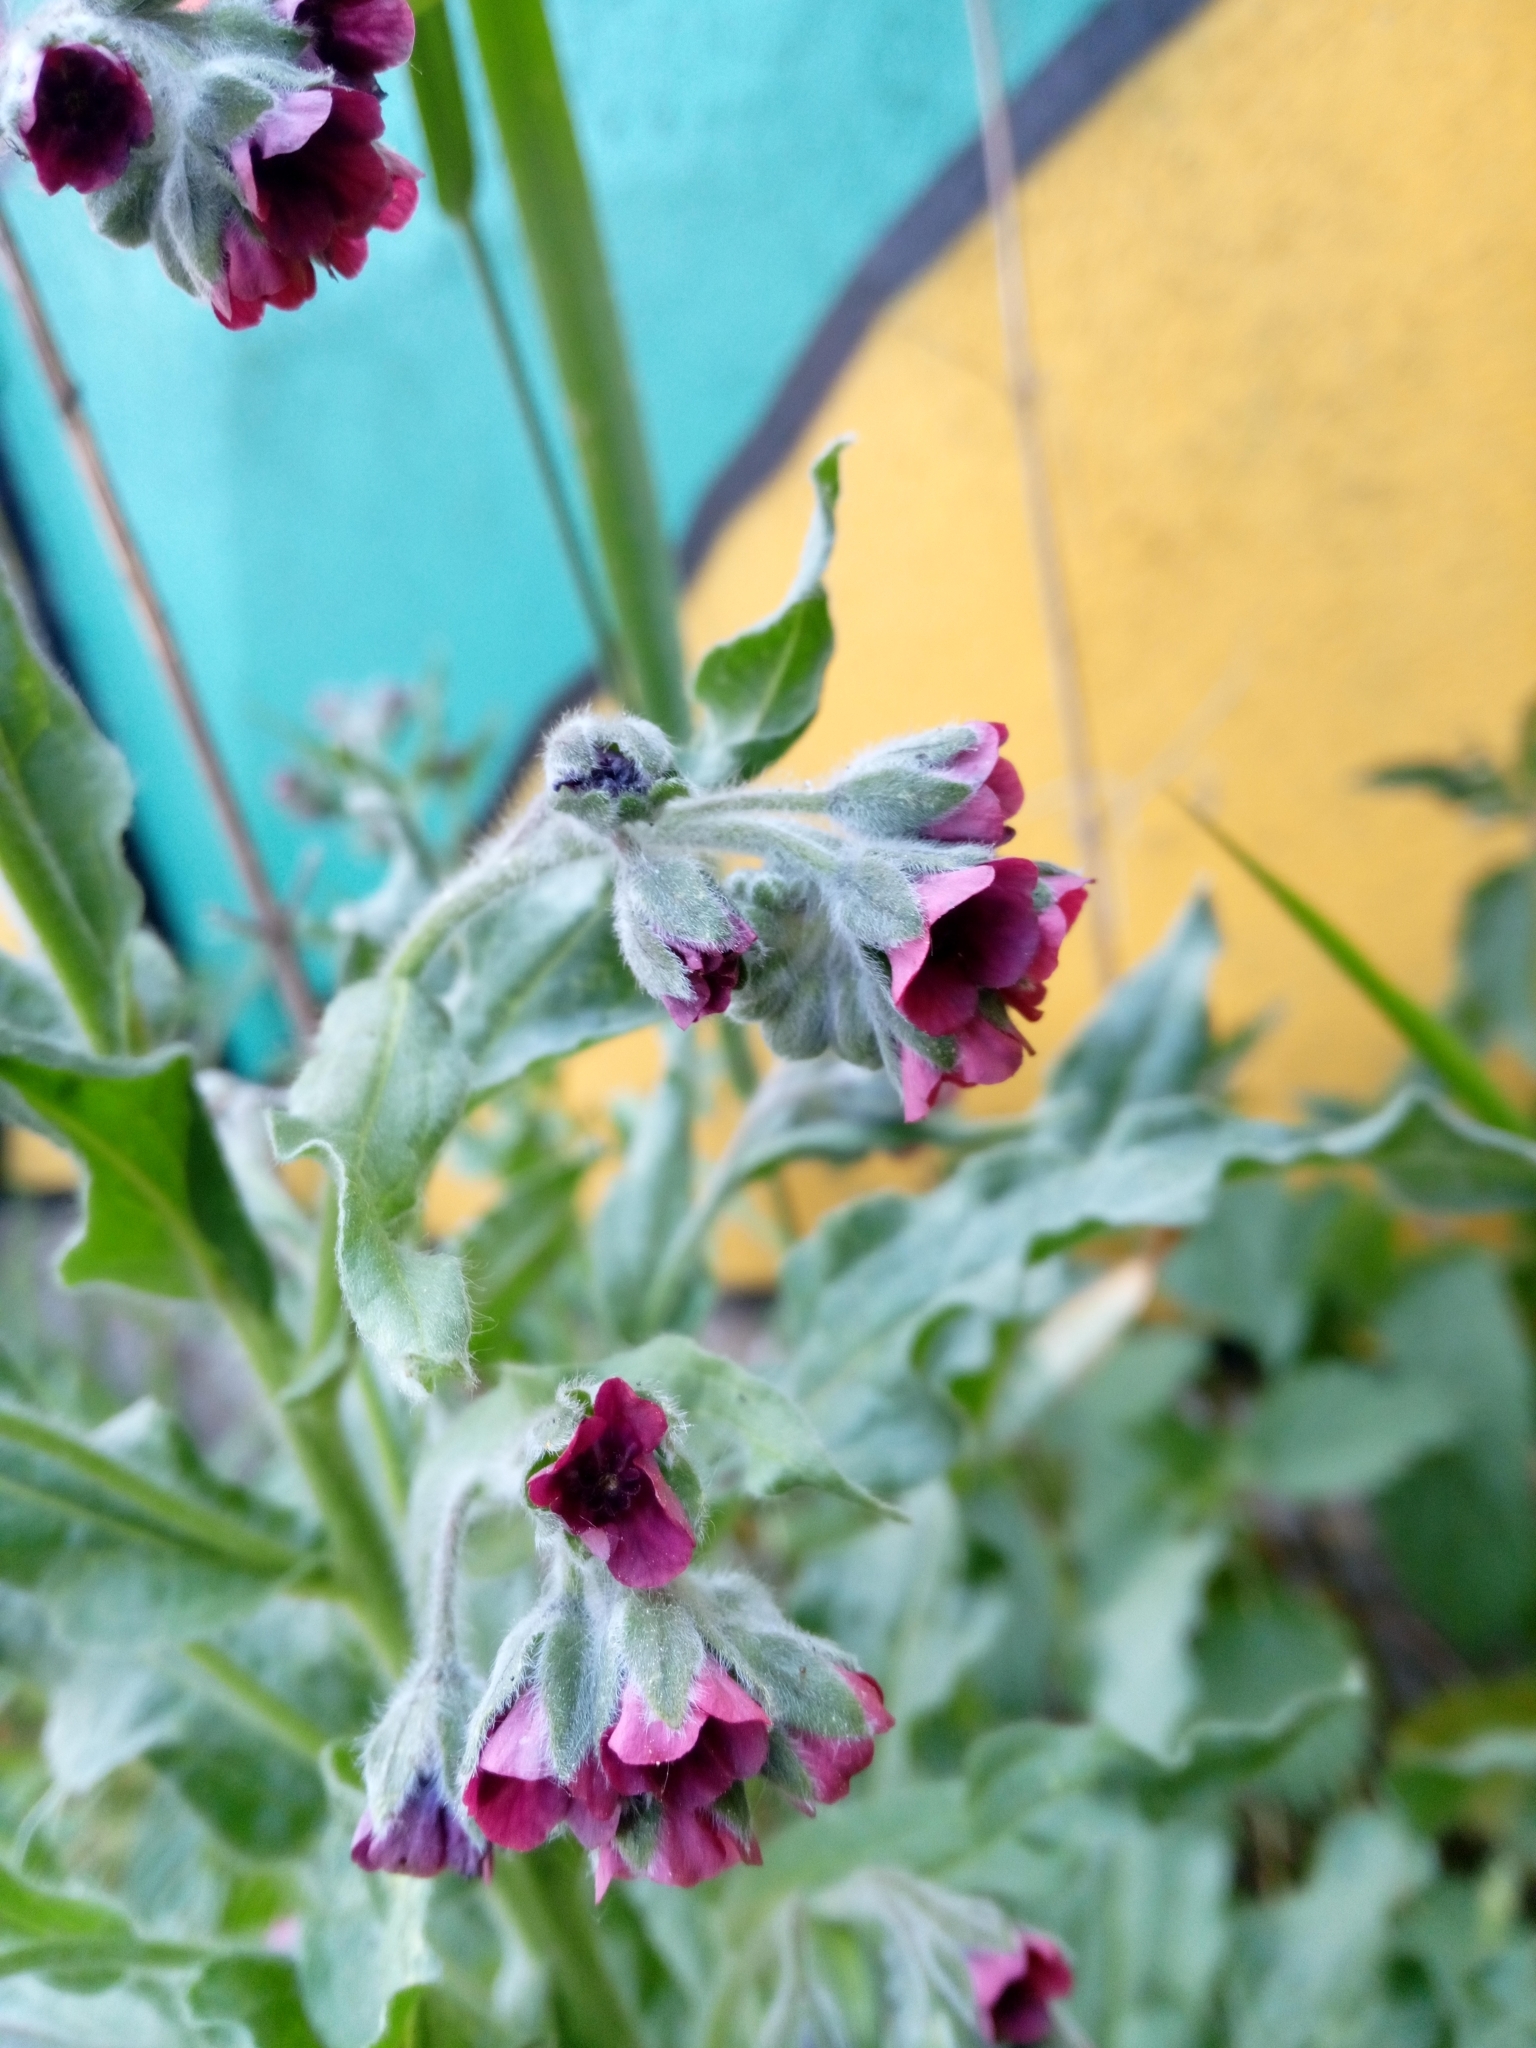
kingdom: Plantae
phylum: Tracheophyta
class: Magnoliopsida
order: Boraginales
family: Boraginaceae
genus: Cynoglossum
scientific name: Cynoglossum officinale
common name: Hound's-tongue
